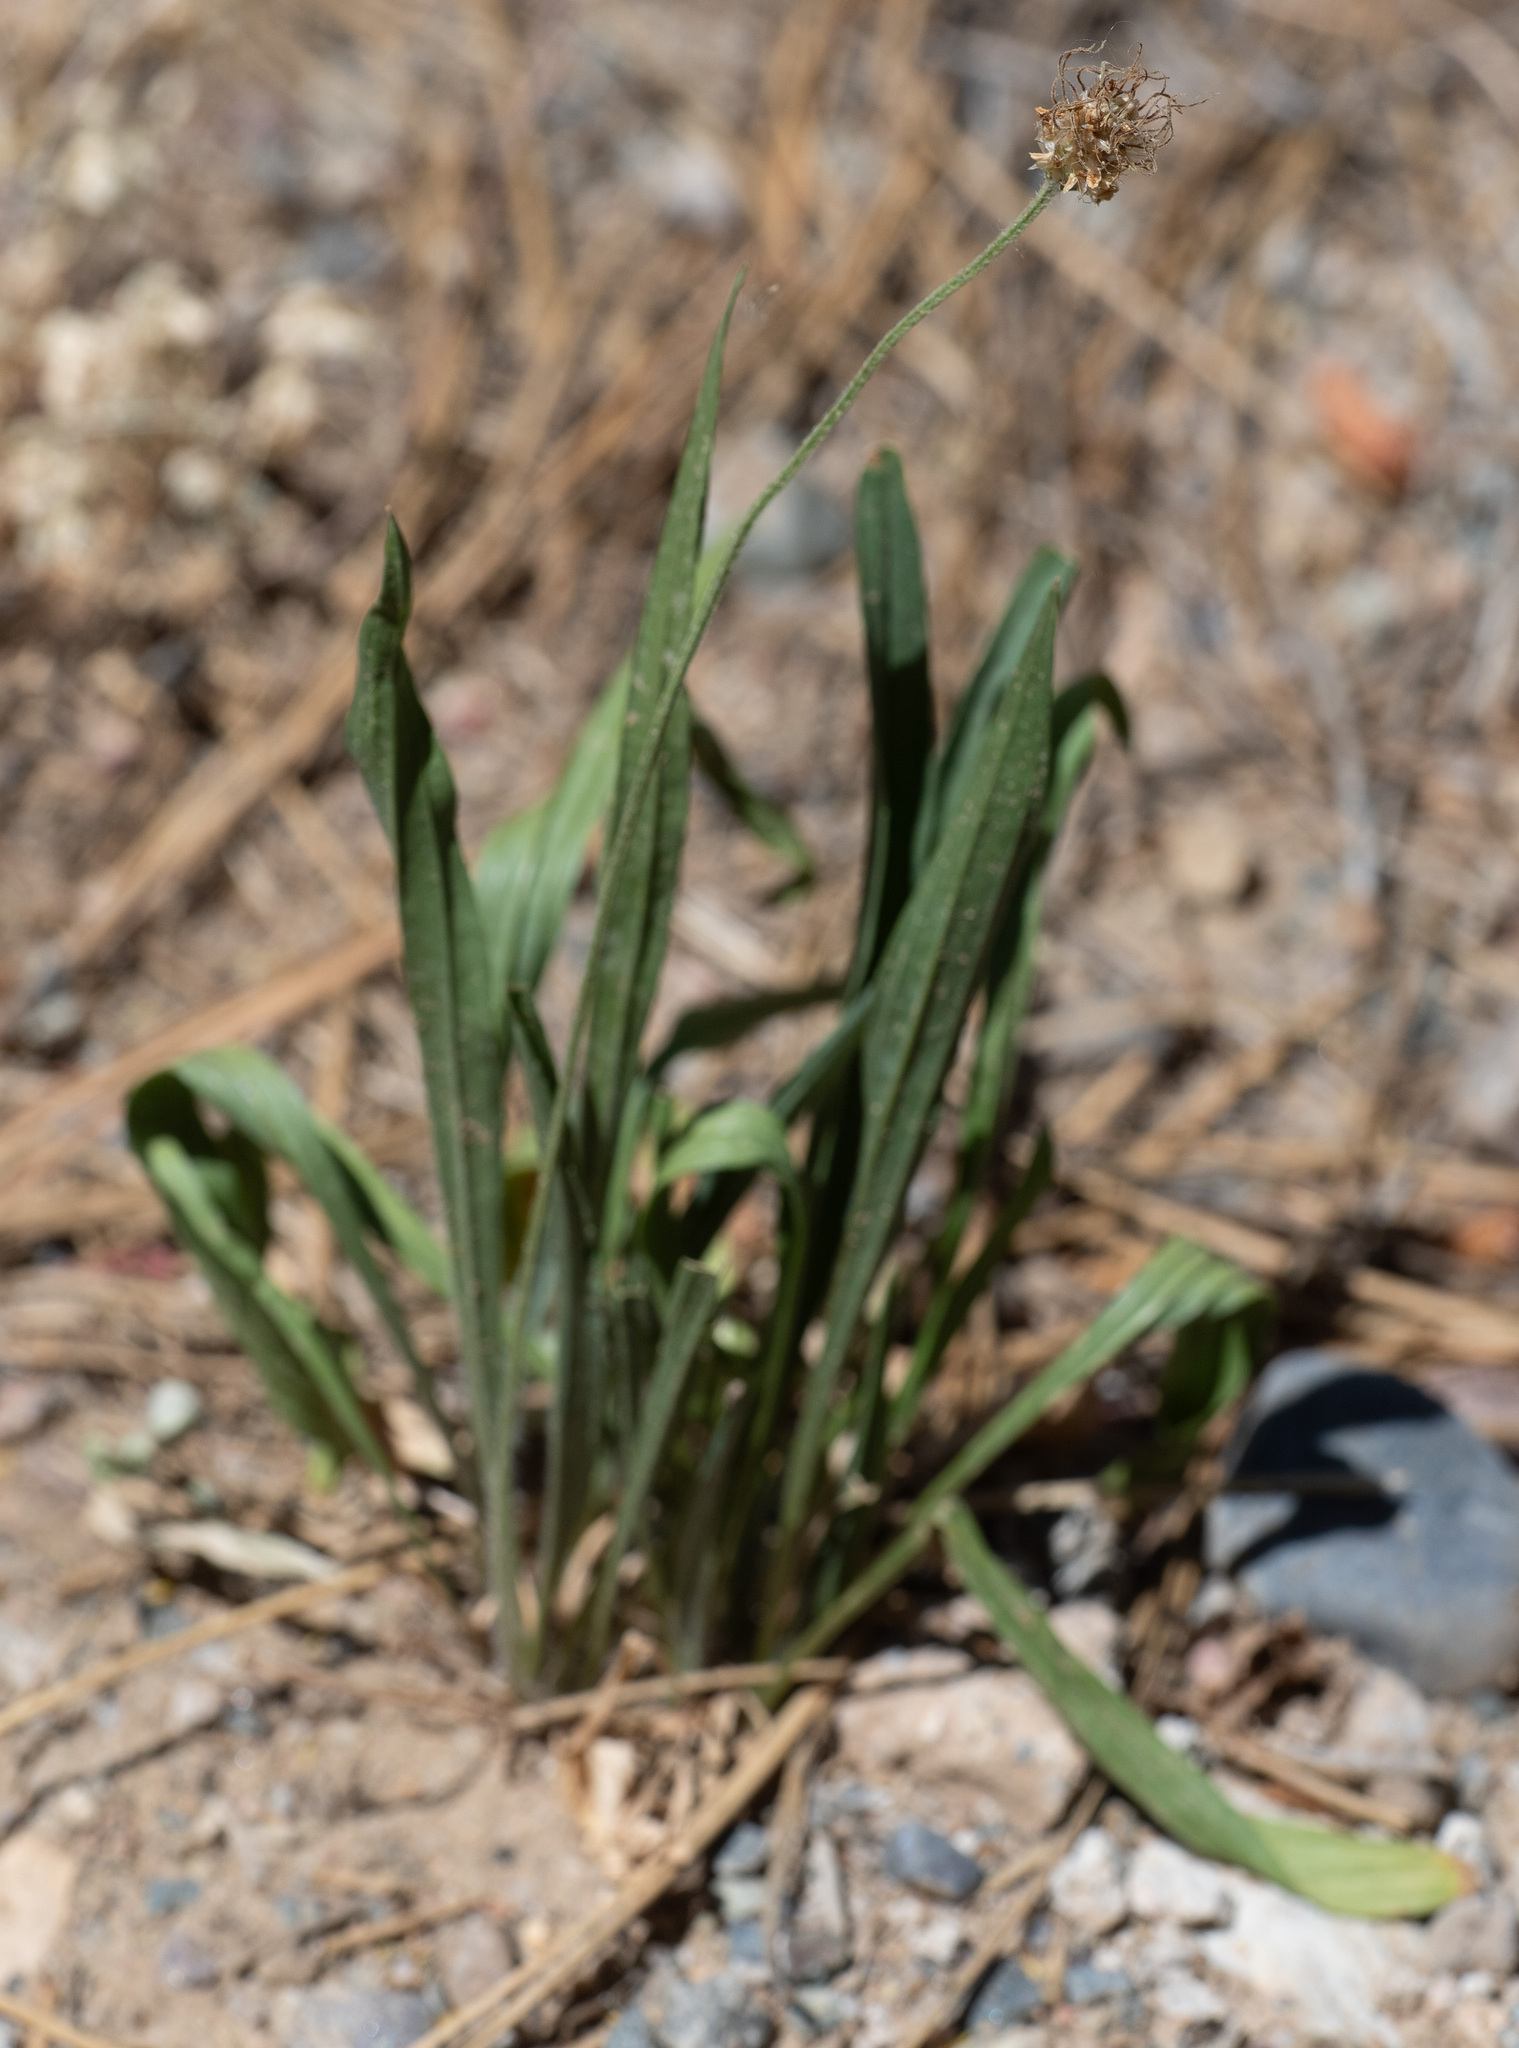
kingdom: Plantae
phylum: Tracheophyta
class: Magnoliopsida
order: Lamiales
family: Plantaginaceae
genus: Plantago
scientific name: Plantago lanceolata
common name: Ribwort plantain
